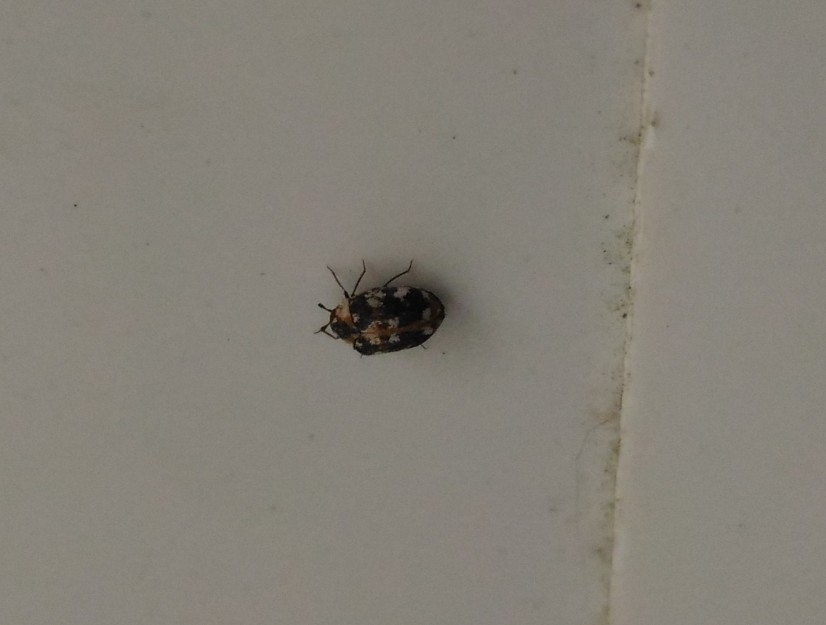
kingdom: Animalia
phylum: Arthropoda
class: Insecta
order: Coleoptera
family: Dermestidae
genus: Anthrenus
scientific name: Anthrenus picturatus
